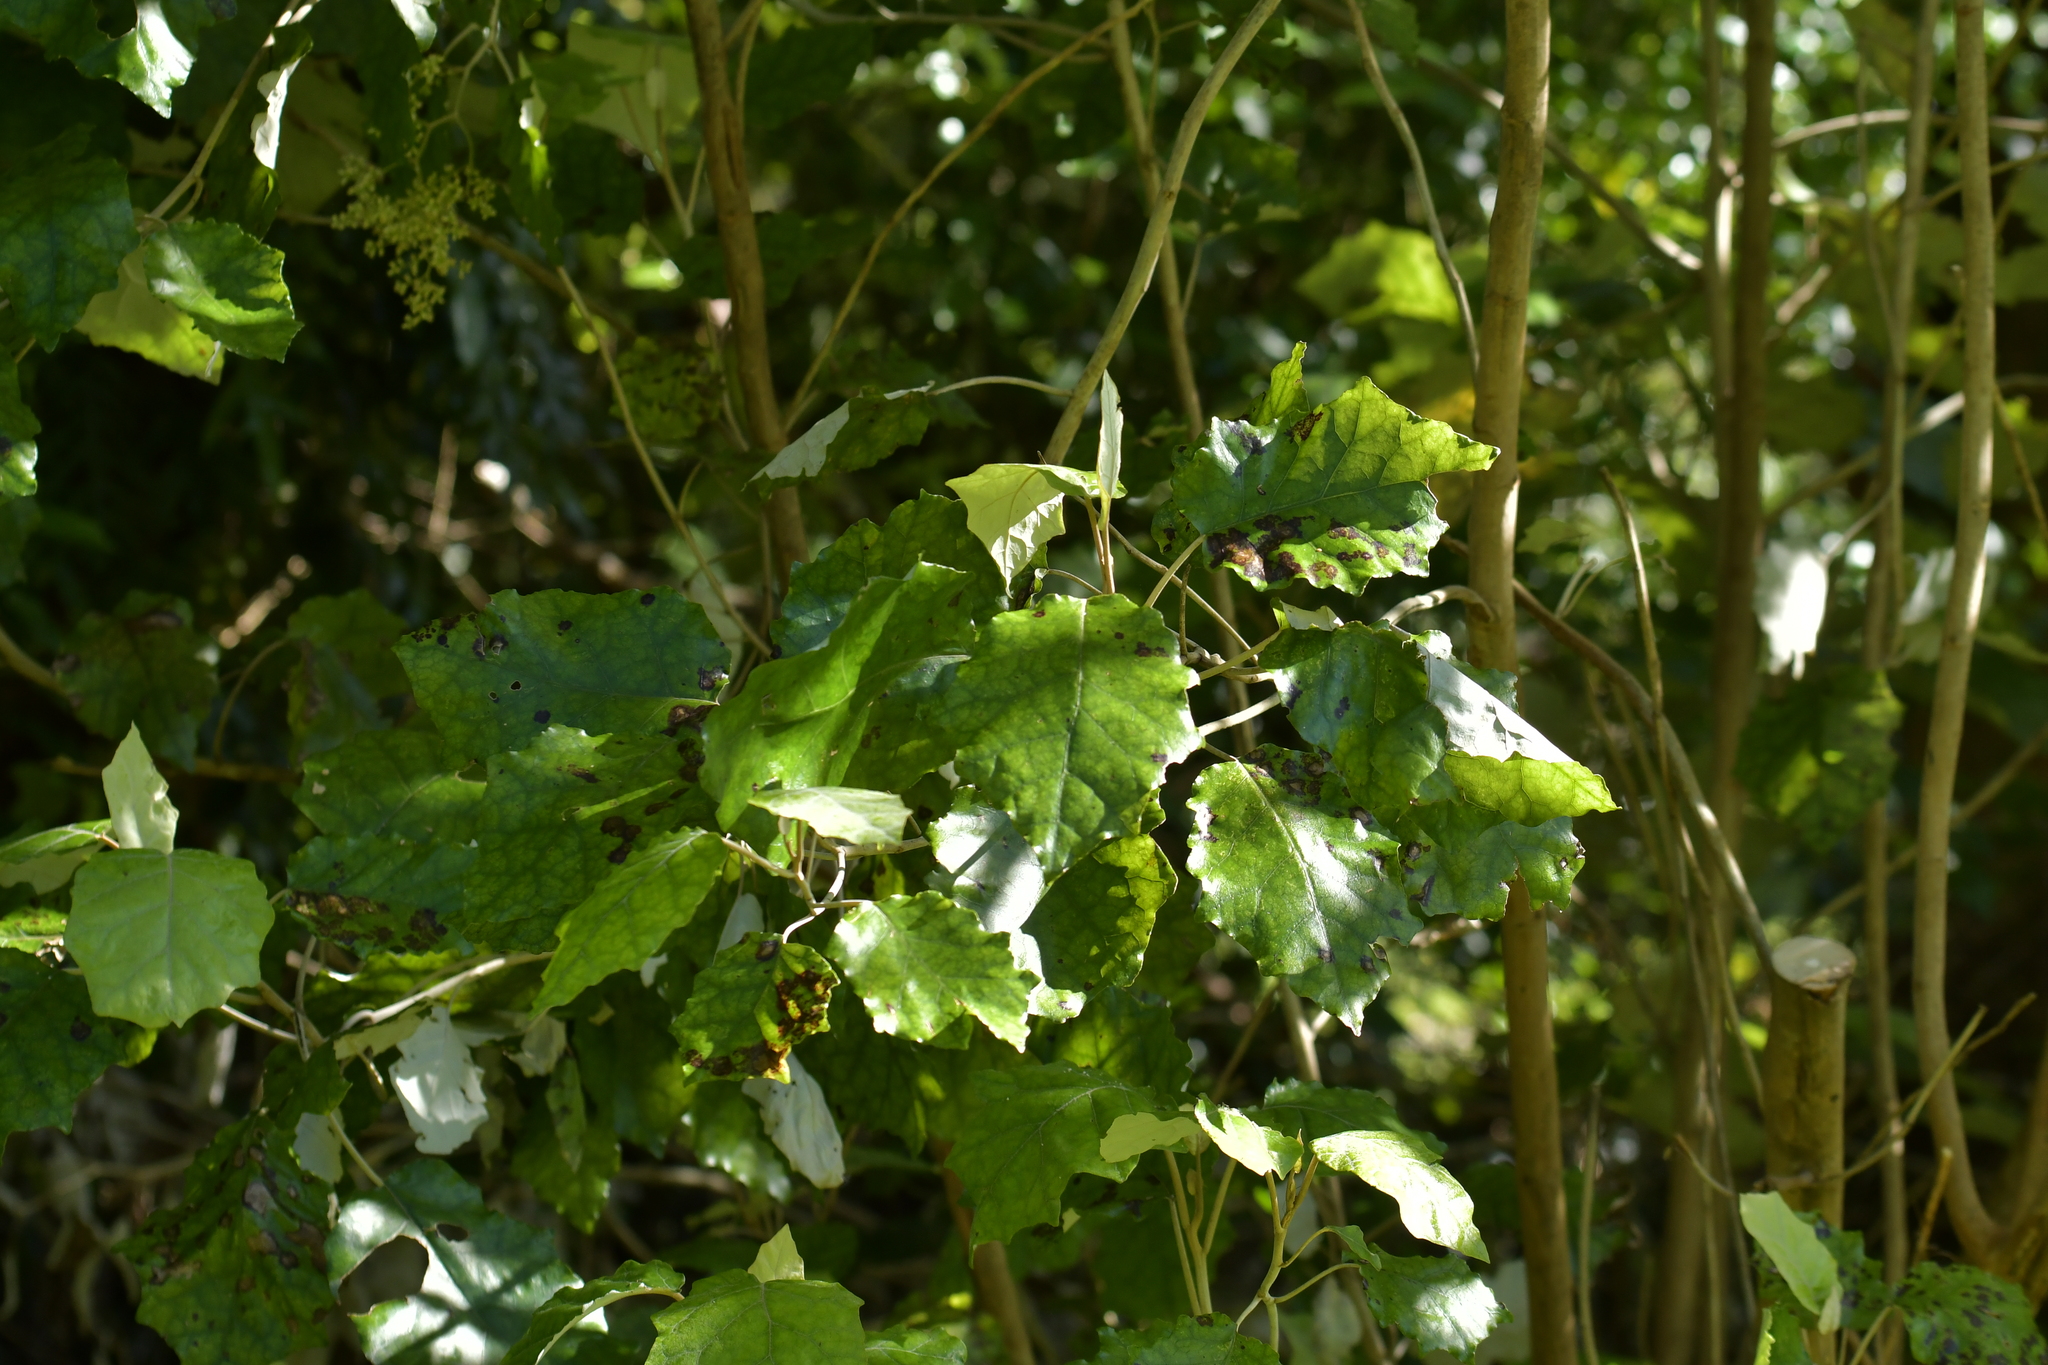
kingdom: Plantae
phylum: Tracheophyta
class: Magnoliopsida
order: Asterales
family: Asteraceae
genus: Brachyglottis
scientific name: Brachyglottis repanda
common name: Hedge ragwort
